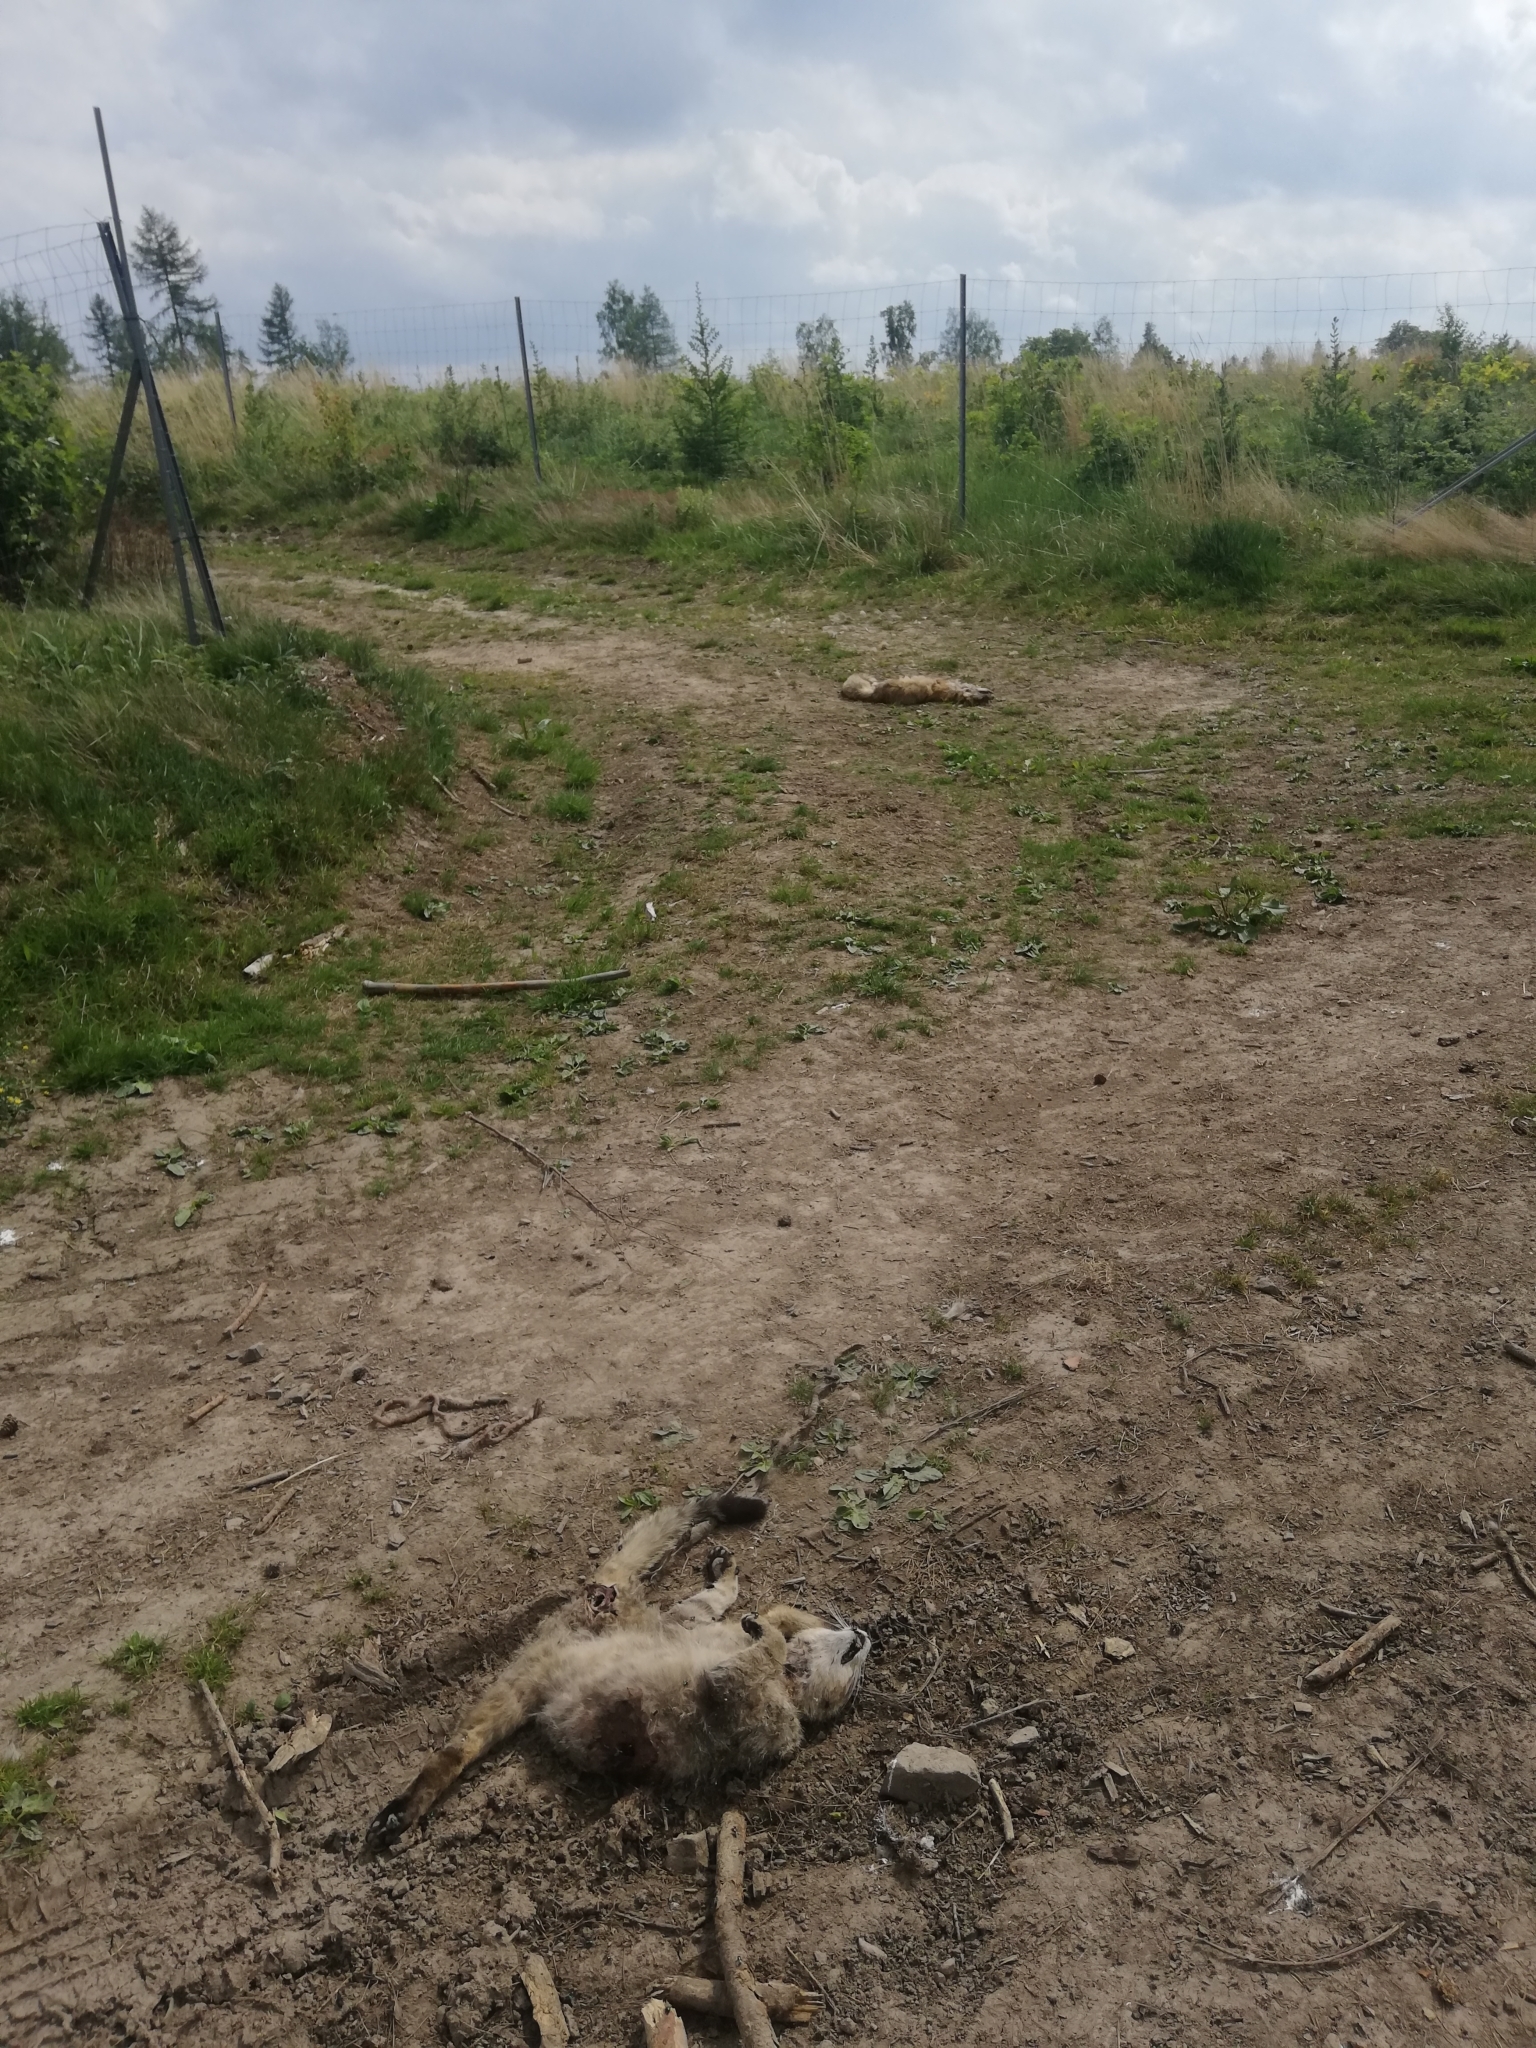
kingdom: Animalia
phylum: Chordata
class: Mammalia
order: Carnivora
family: Canidae
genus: Vulpes
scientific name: Vulpes vulpes
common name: Red fox
